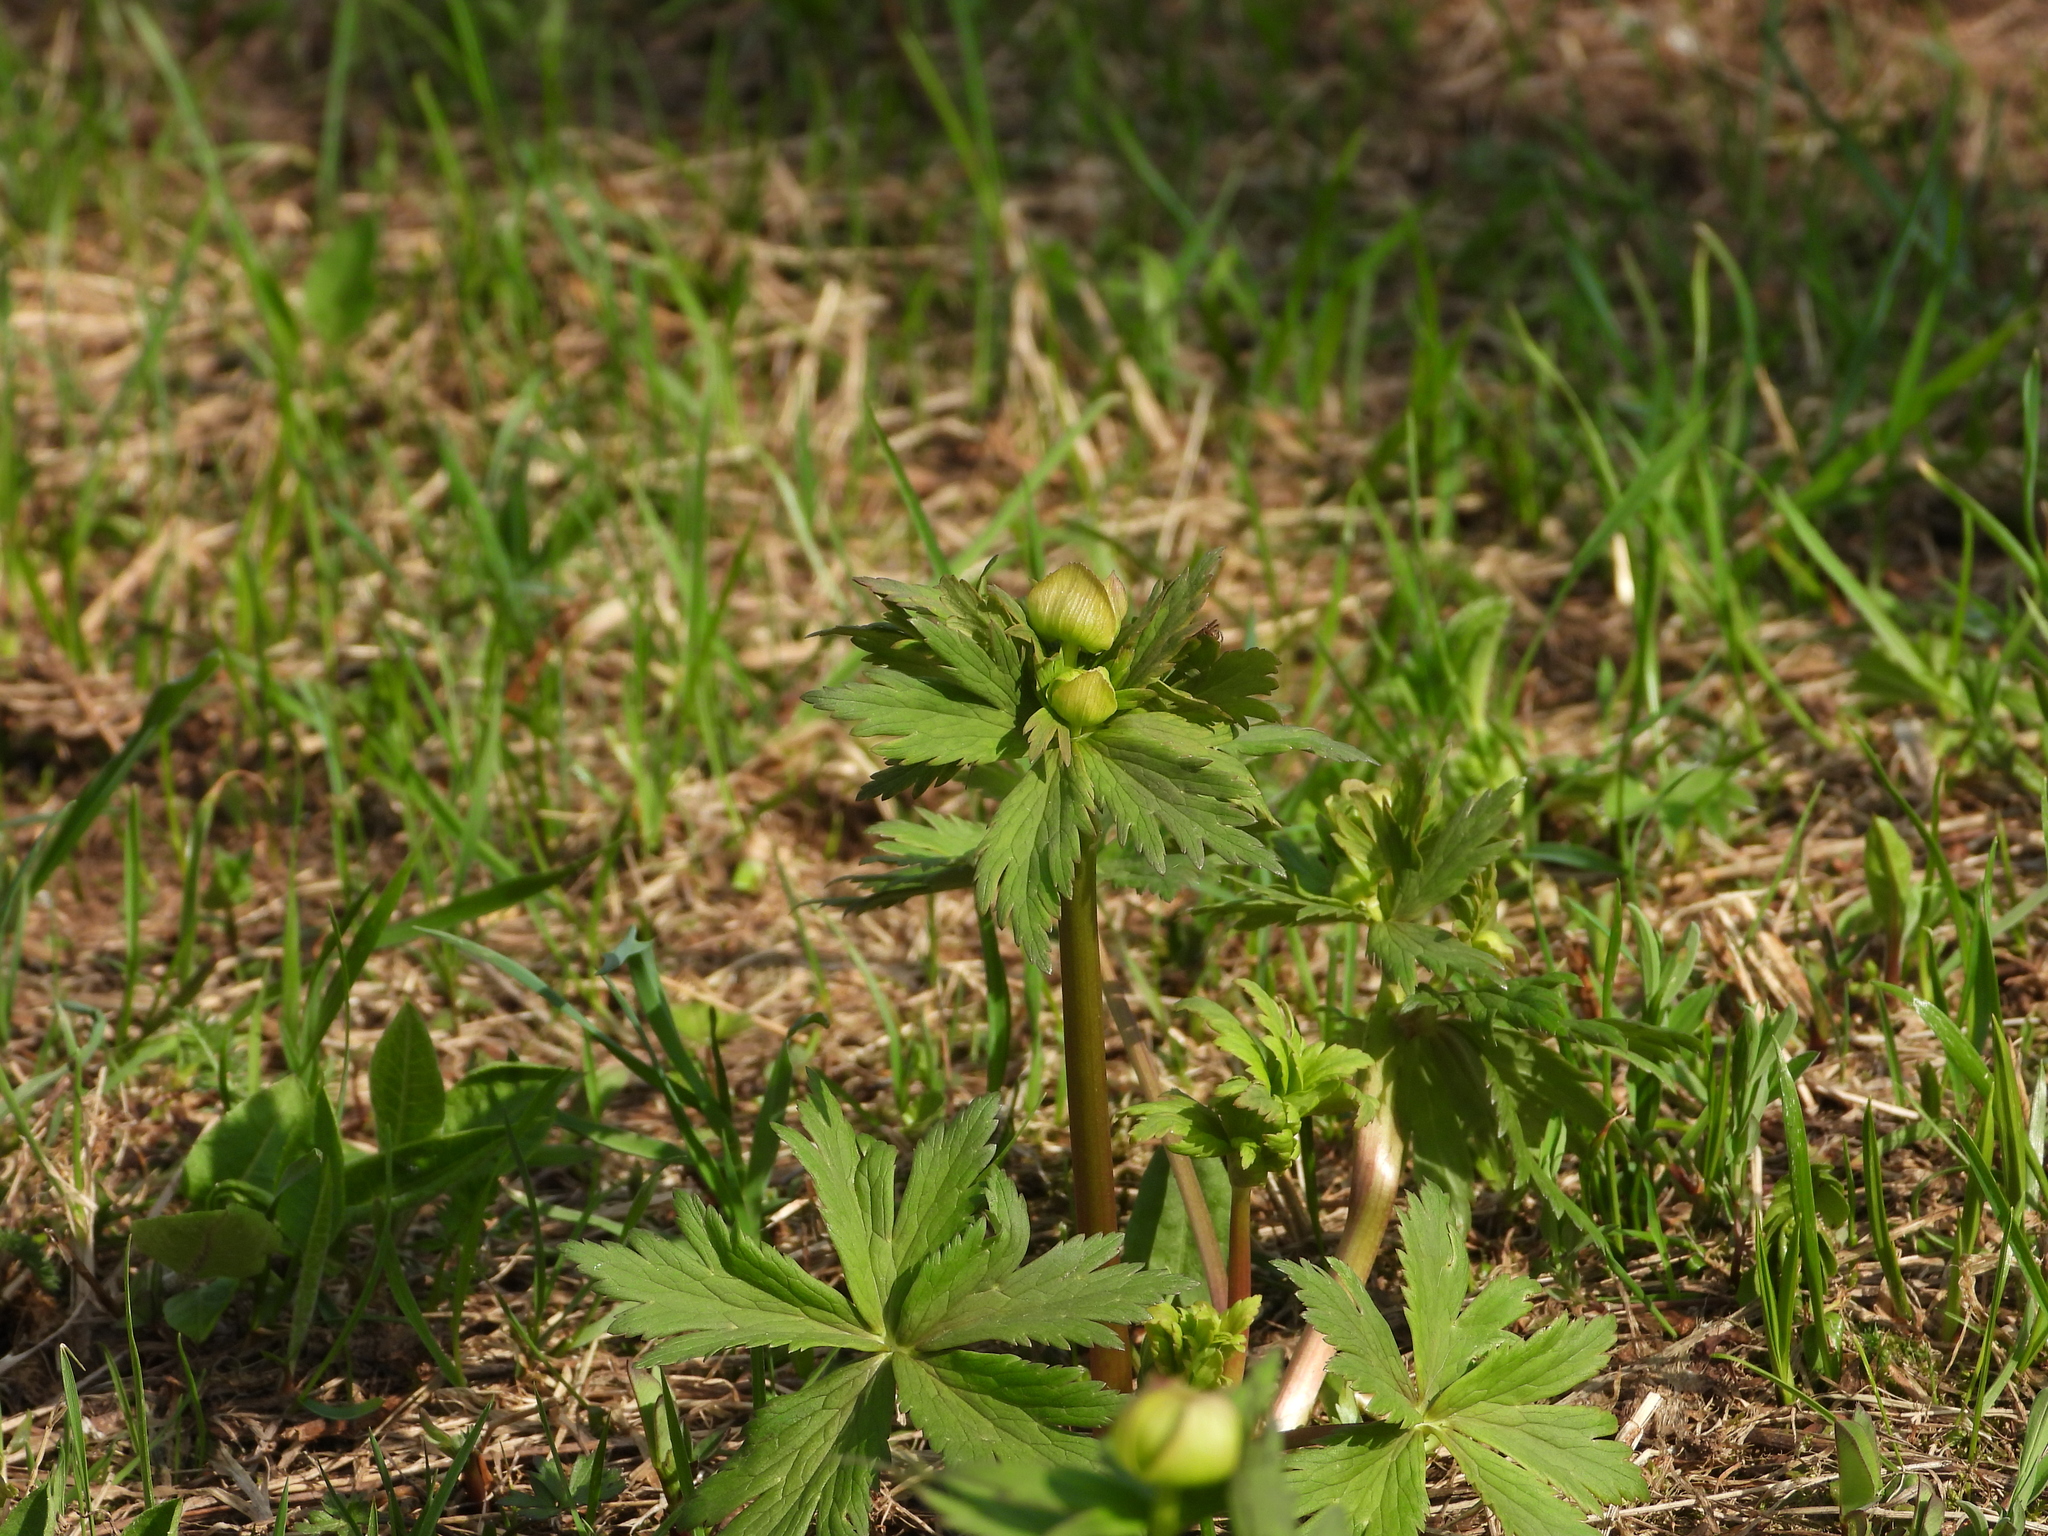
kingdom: Plantae
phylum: Tracheophyta
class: Magnoliopsida
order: Ranunculales
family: Ranunculaceae
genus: Trollius
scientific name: Trollius europaeus
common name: European globeflower
